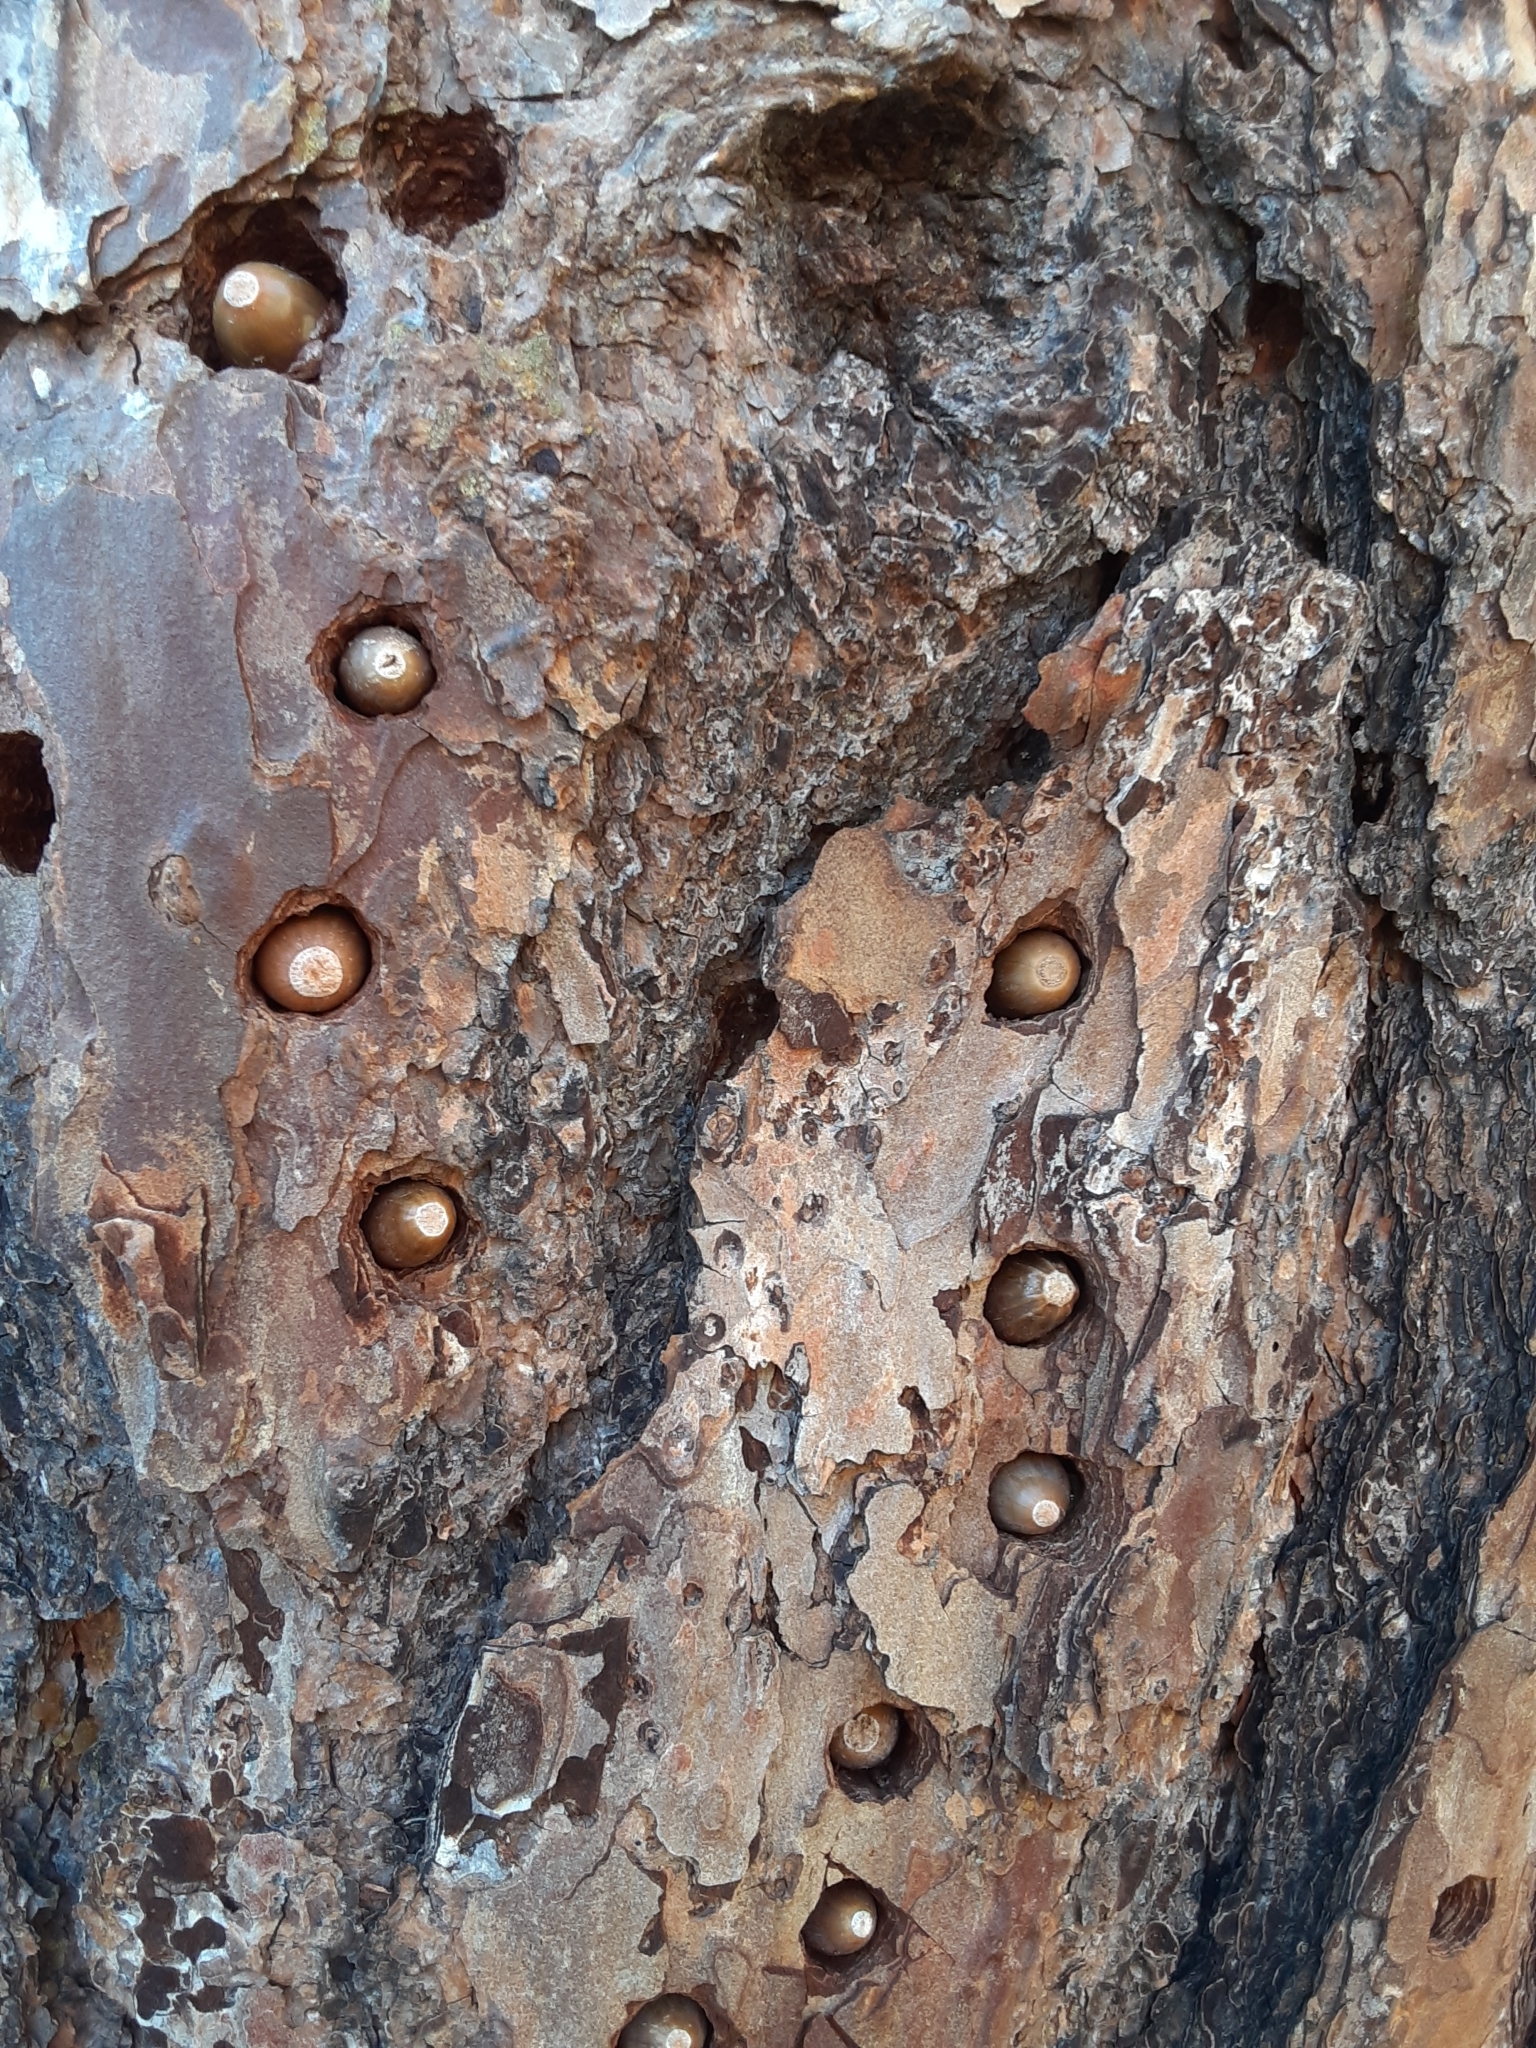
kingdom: Animalia
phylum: Chordata
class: Aves
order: Piciformes
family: Picidae
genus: Melanerpes
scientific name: Melanerpes formicivorus
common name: Acorn woodpecker
